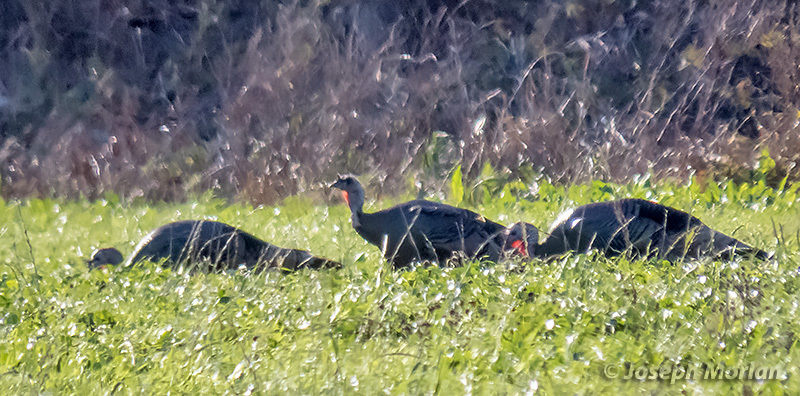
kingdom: Animalia
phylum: Chordata
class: Aves
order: Galliformes
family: Phasianidae
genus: Meleagris
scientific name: Meleagris gallopavo
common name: Wild turkey
